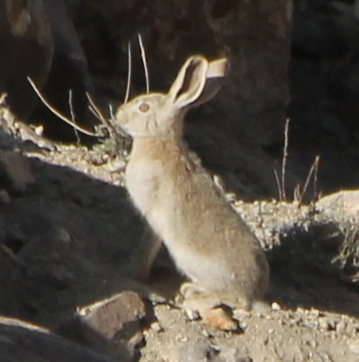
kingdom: Animalia
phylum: Chordata
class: Mammalia
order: Lagomorpha
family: Leporidae
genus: Lepus
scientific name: Lepus tibetanus
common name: Desert hare
